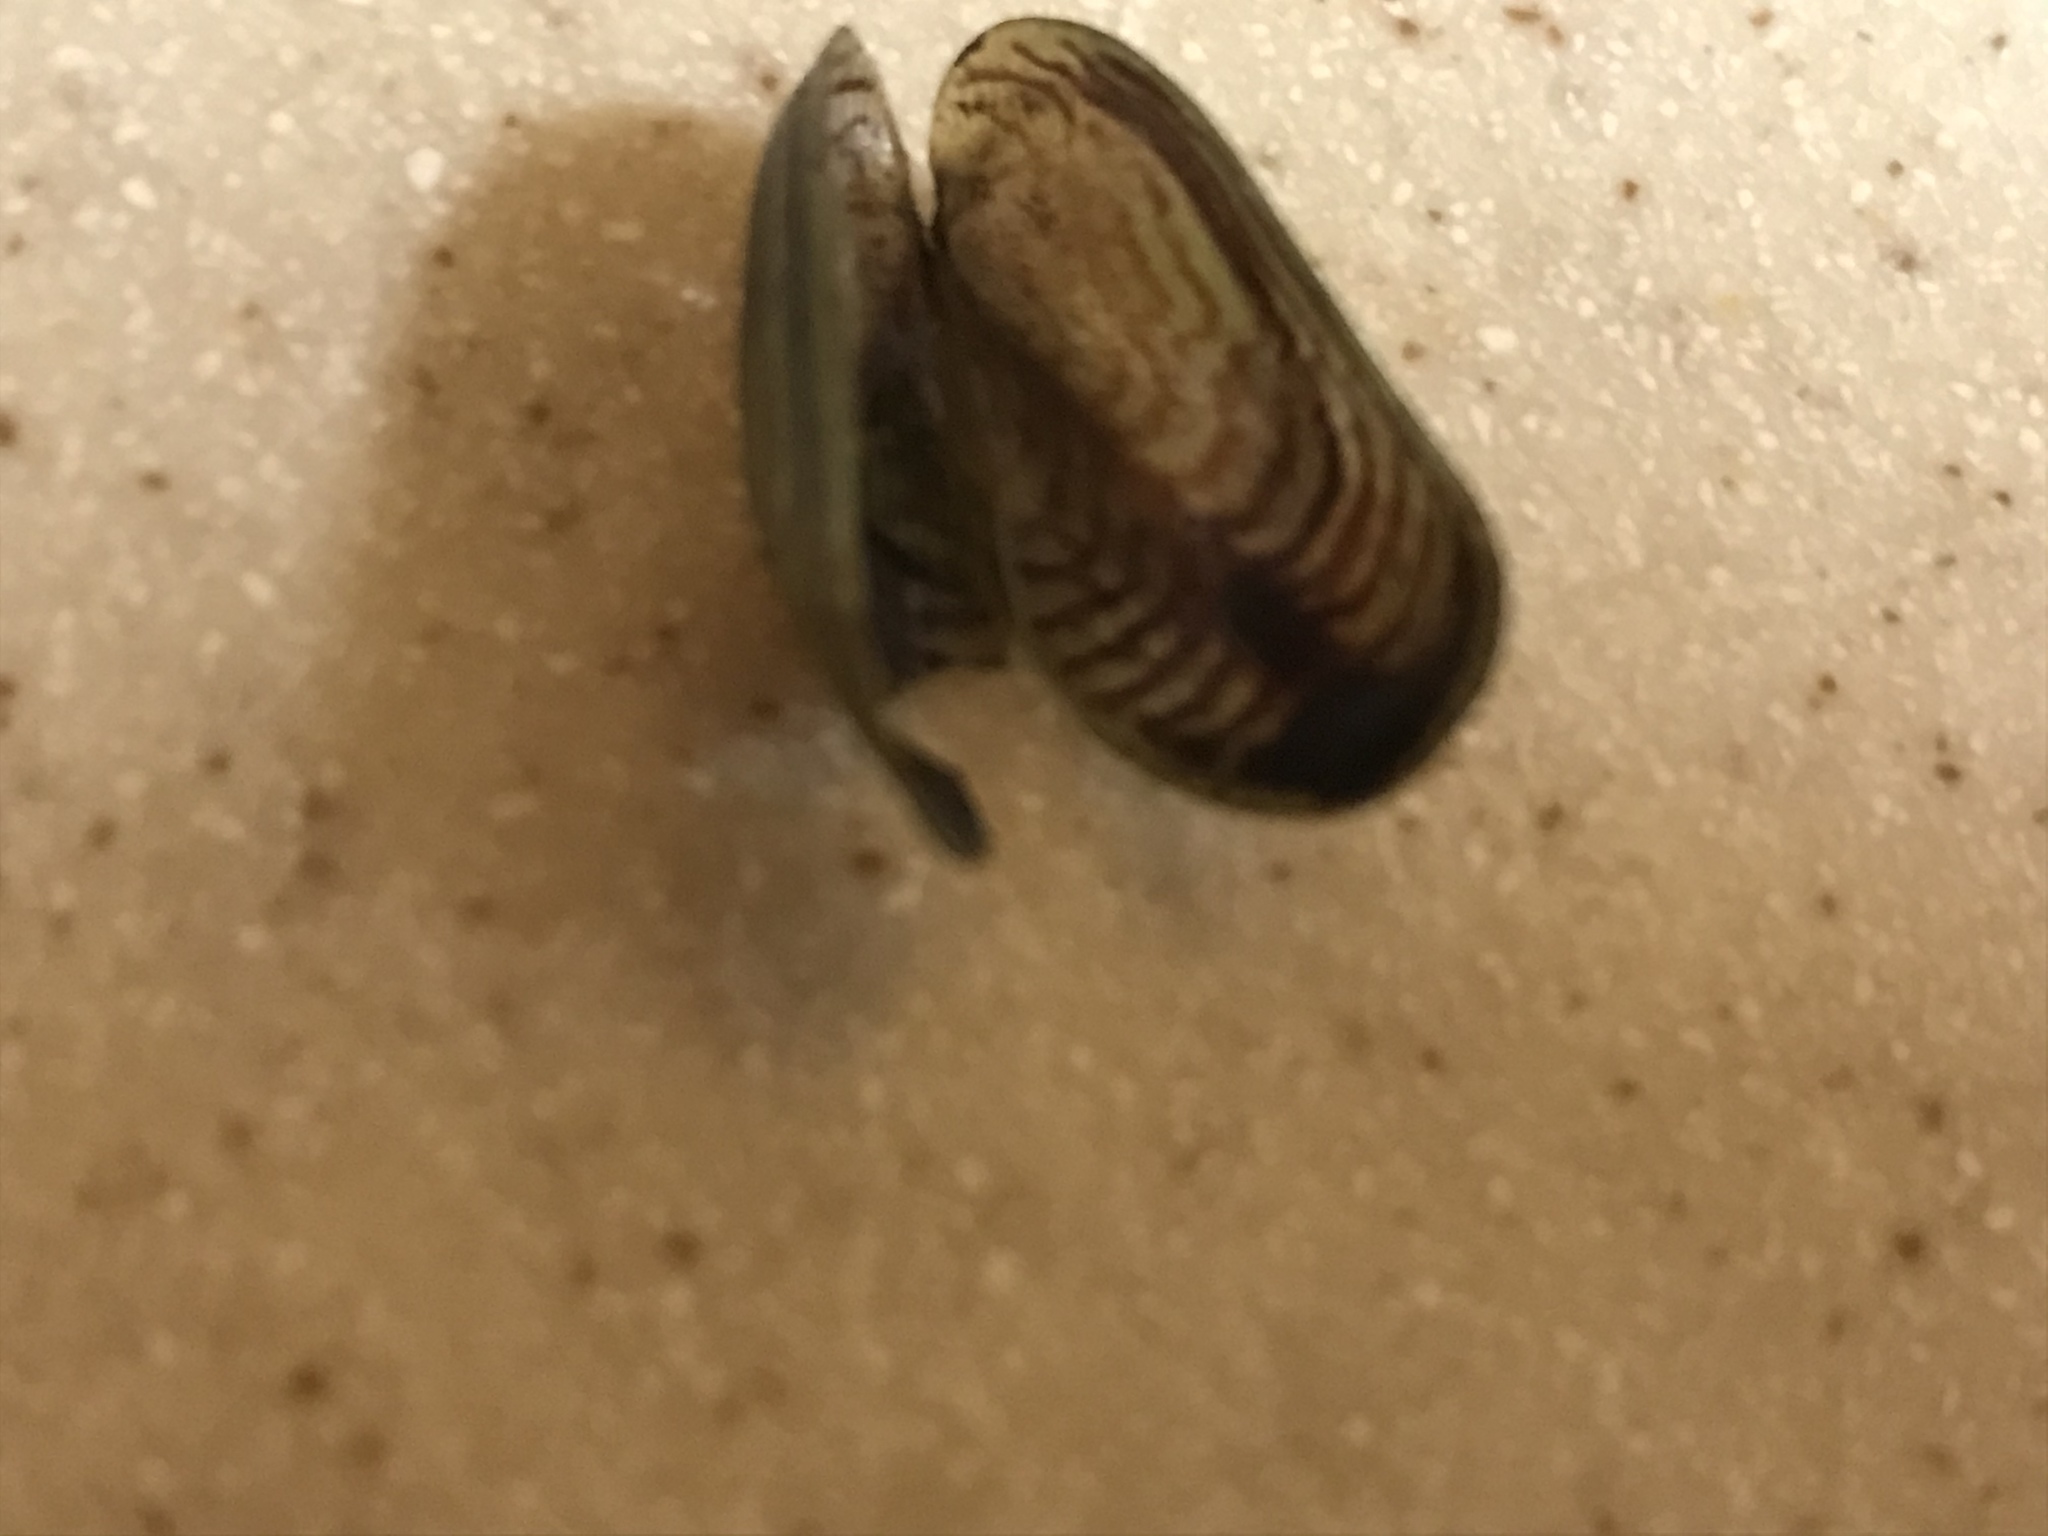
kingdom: Animalia
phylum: Mollusca
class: Bivalvia
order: Mytilida
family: Mytilidae
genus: Arcuatula
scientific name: Arcuatula senhousia
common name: Asian mussel
